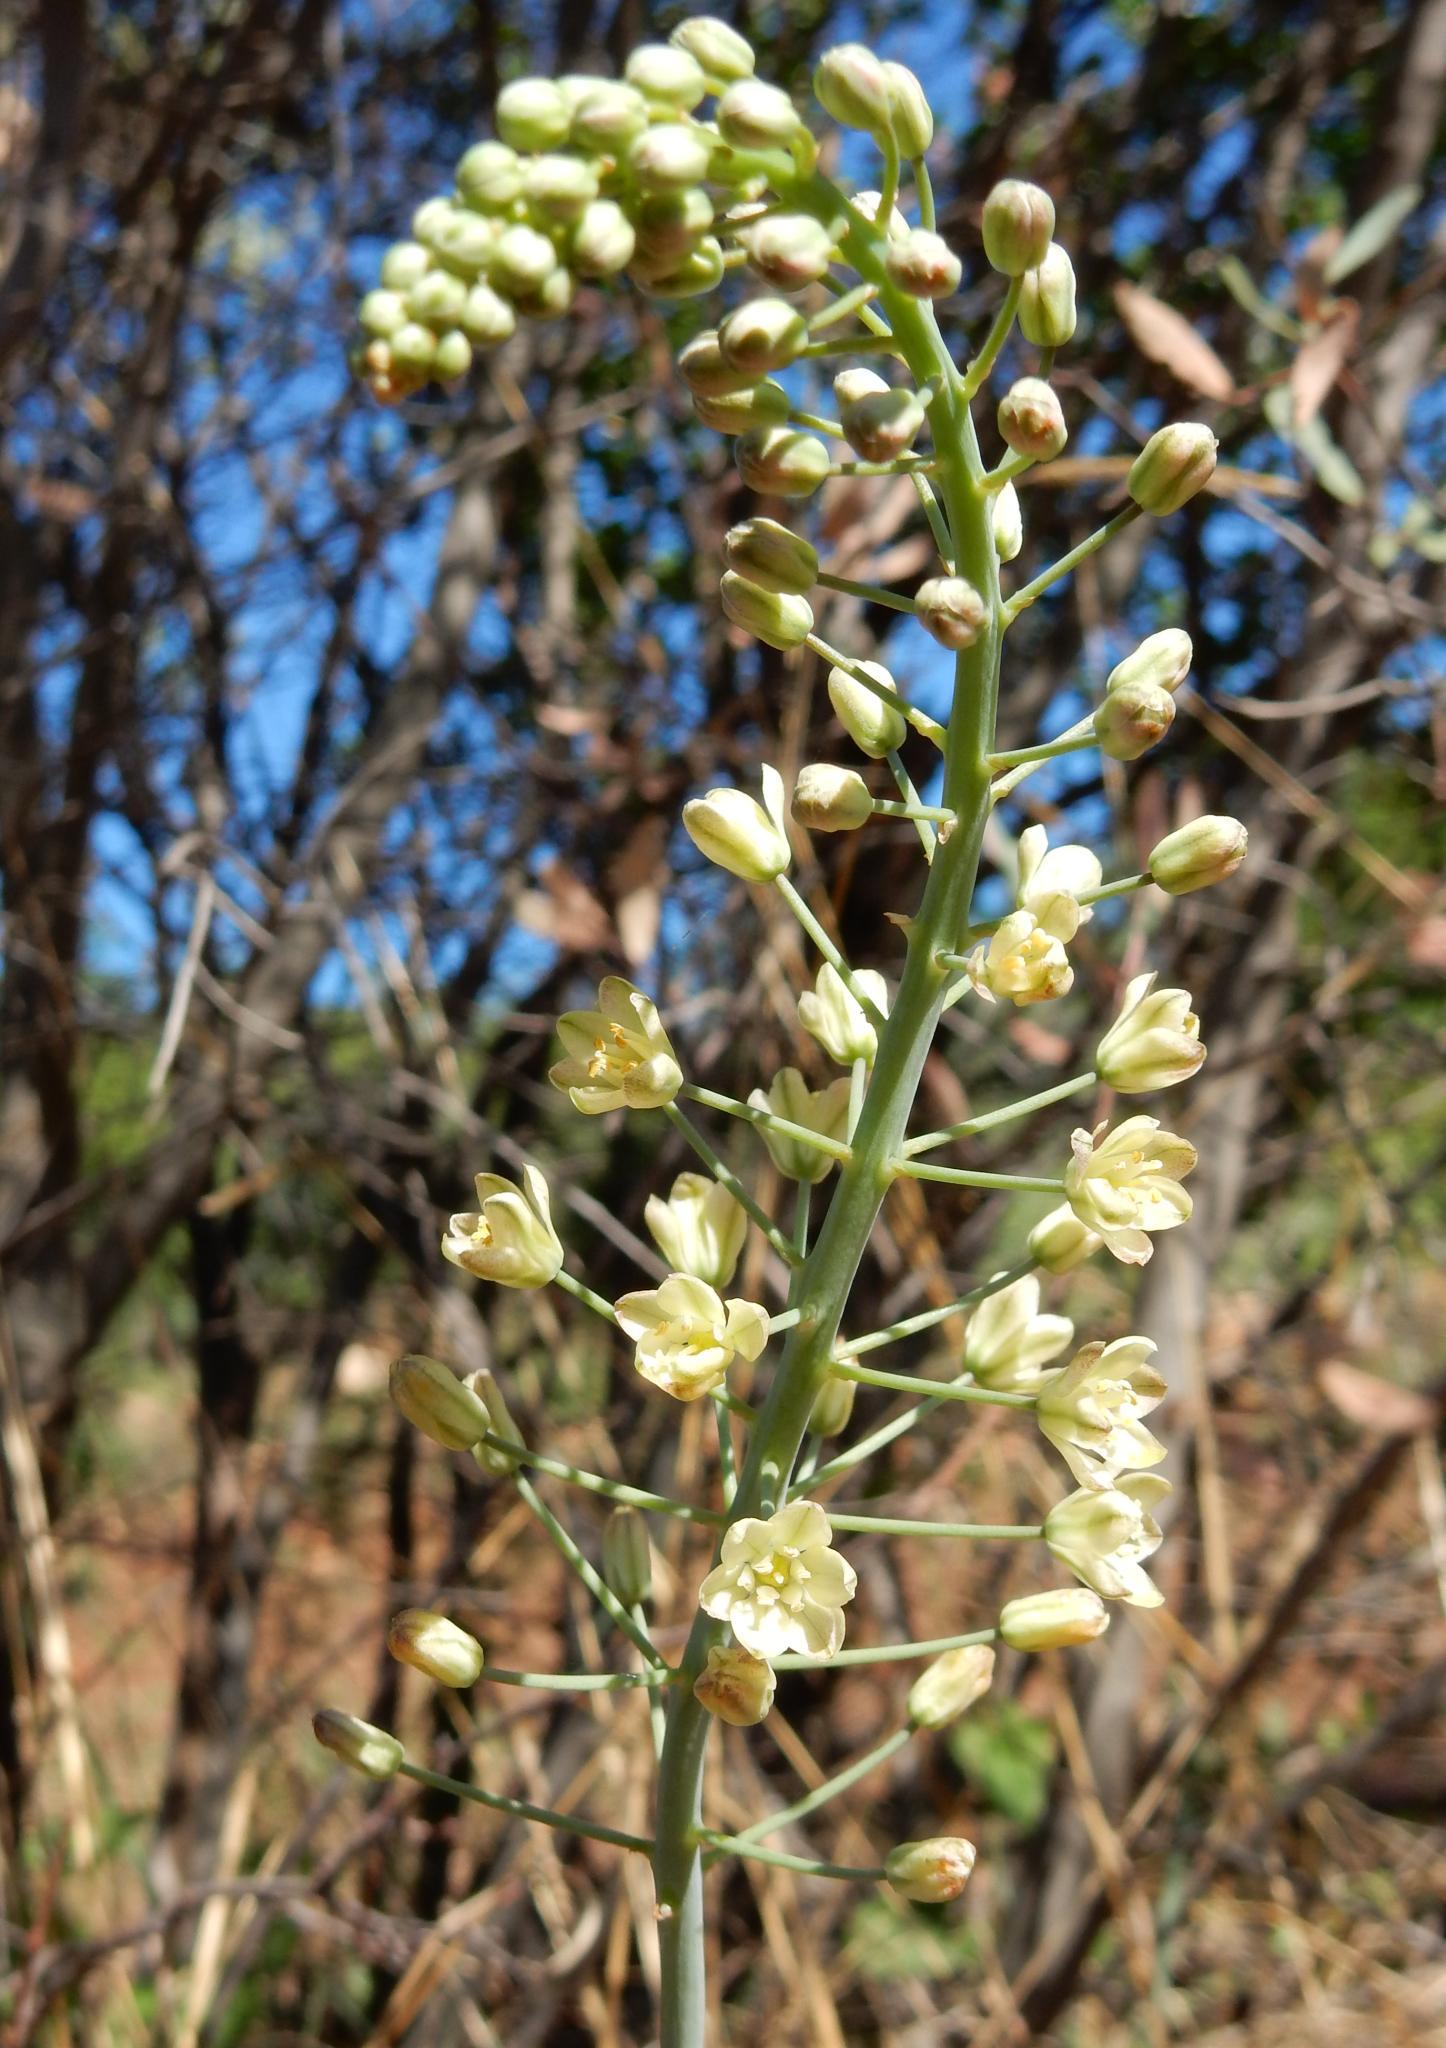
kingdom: Plantae
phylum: Tracheophyta
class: Liliopsida
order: Asparagales
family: Asparagaceae
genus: Eriospermum
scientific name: Eriospermum cooperi
